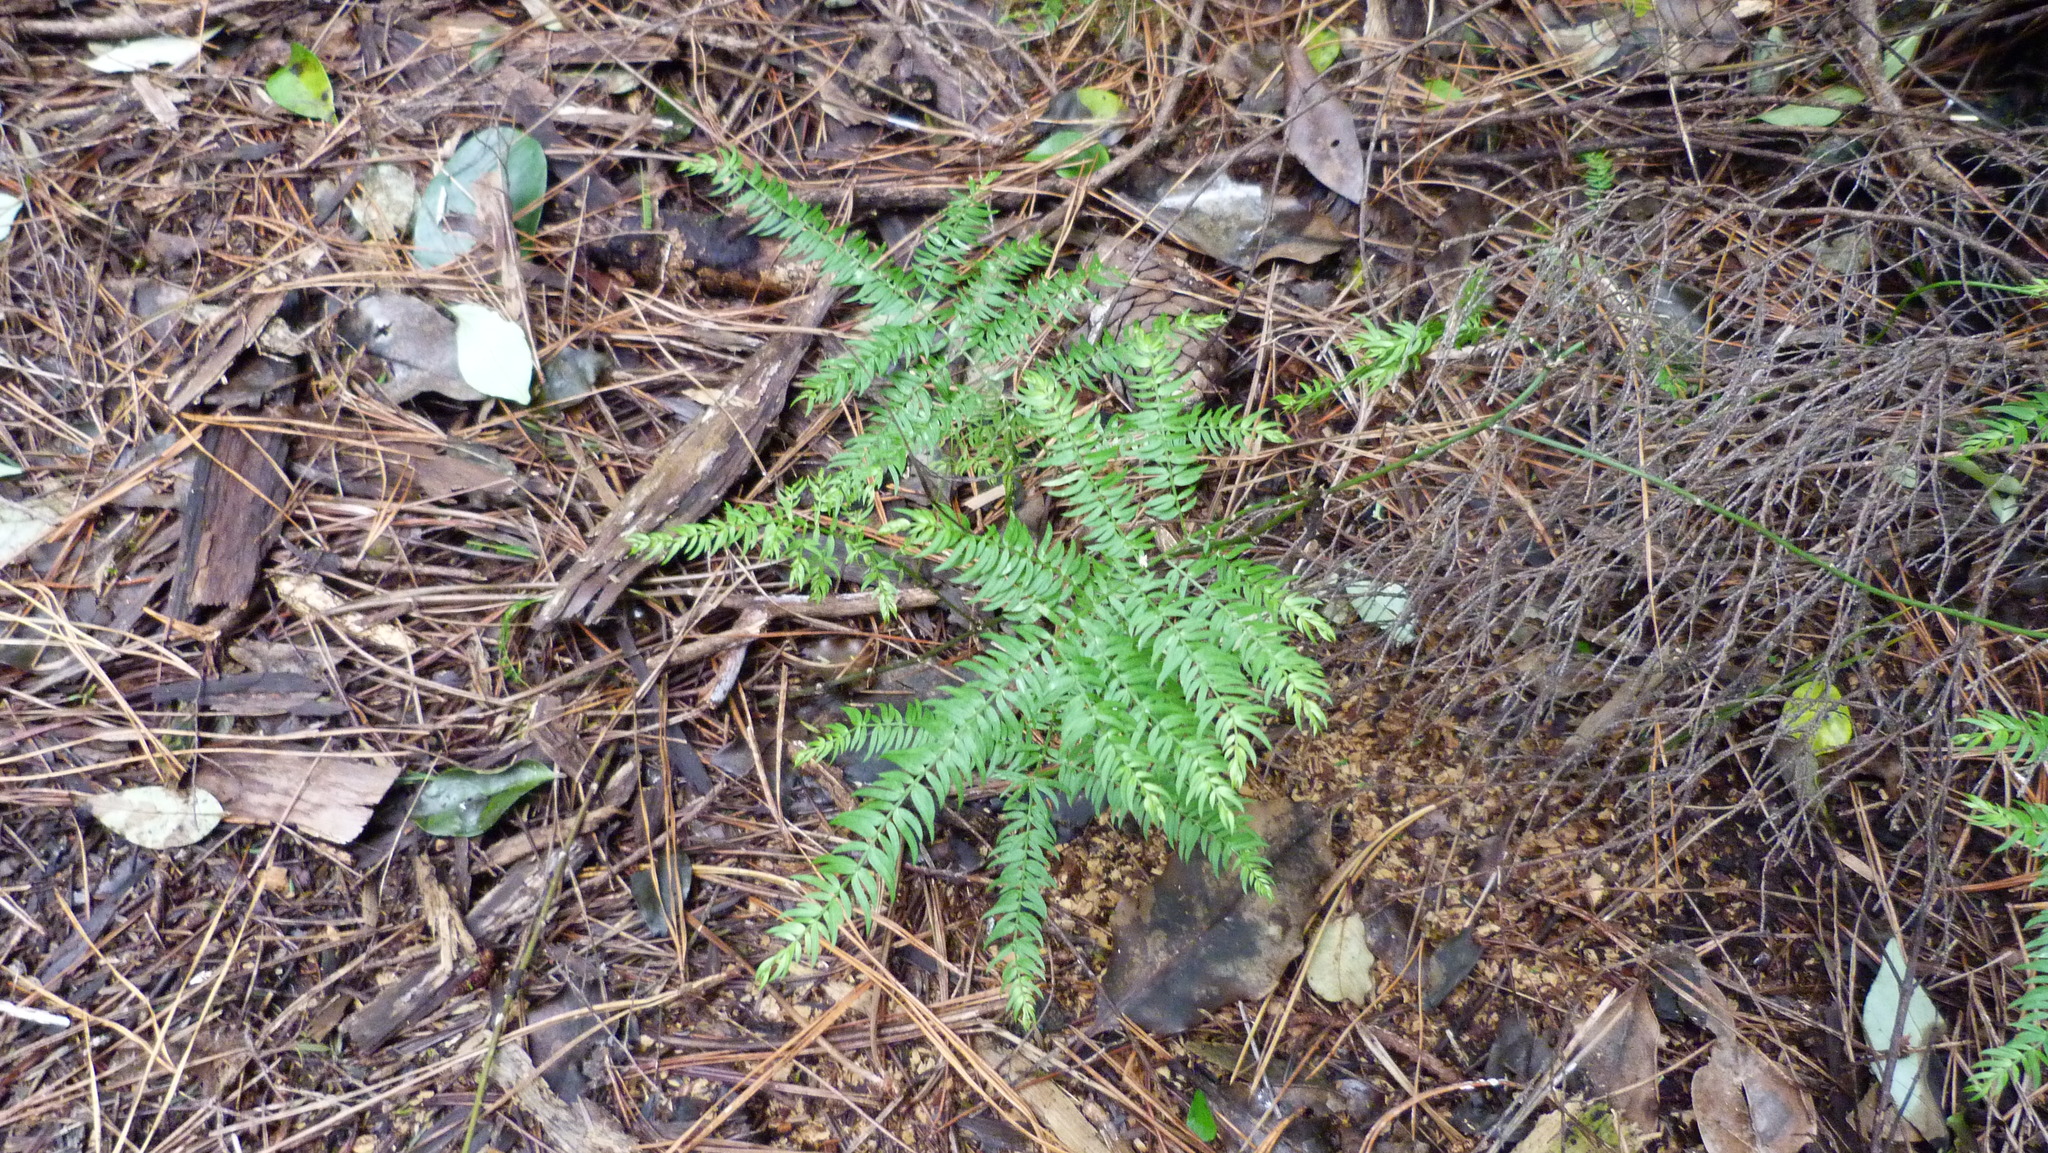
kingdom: Plantae
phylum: Tracheophyta
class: Liliopsida
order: Asparagales
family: Asparagaceae
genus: Asparagus
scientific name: Asparagus scandens
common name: Asparagus-fern
